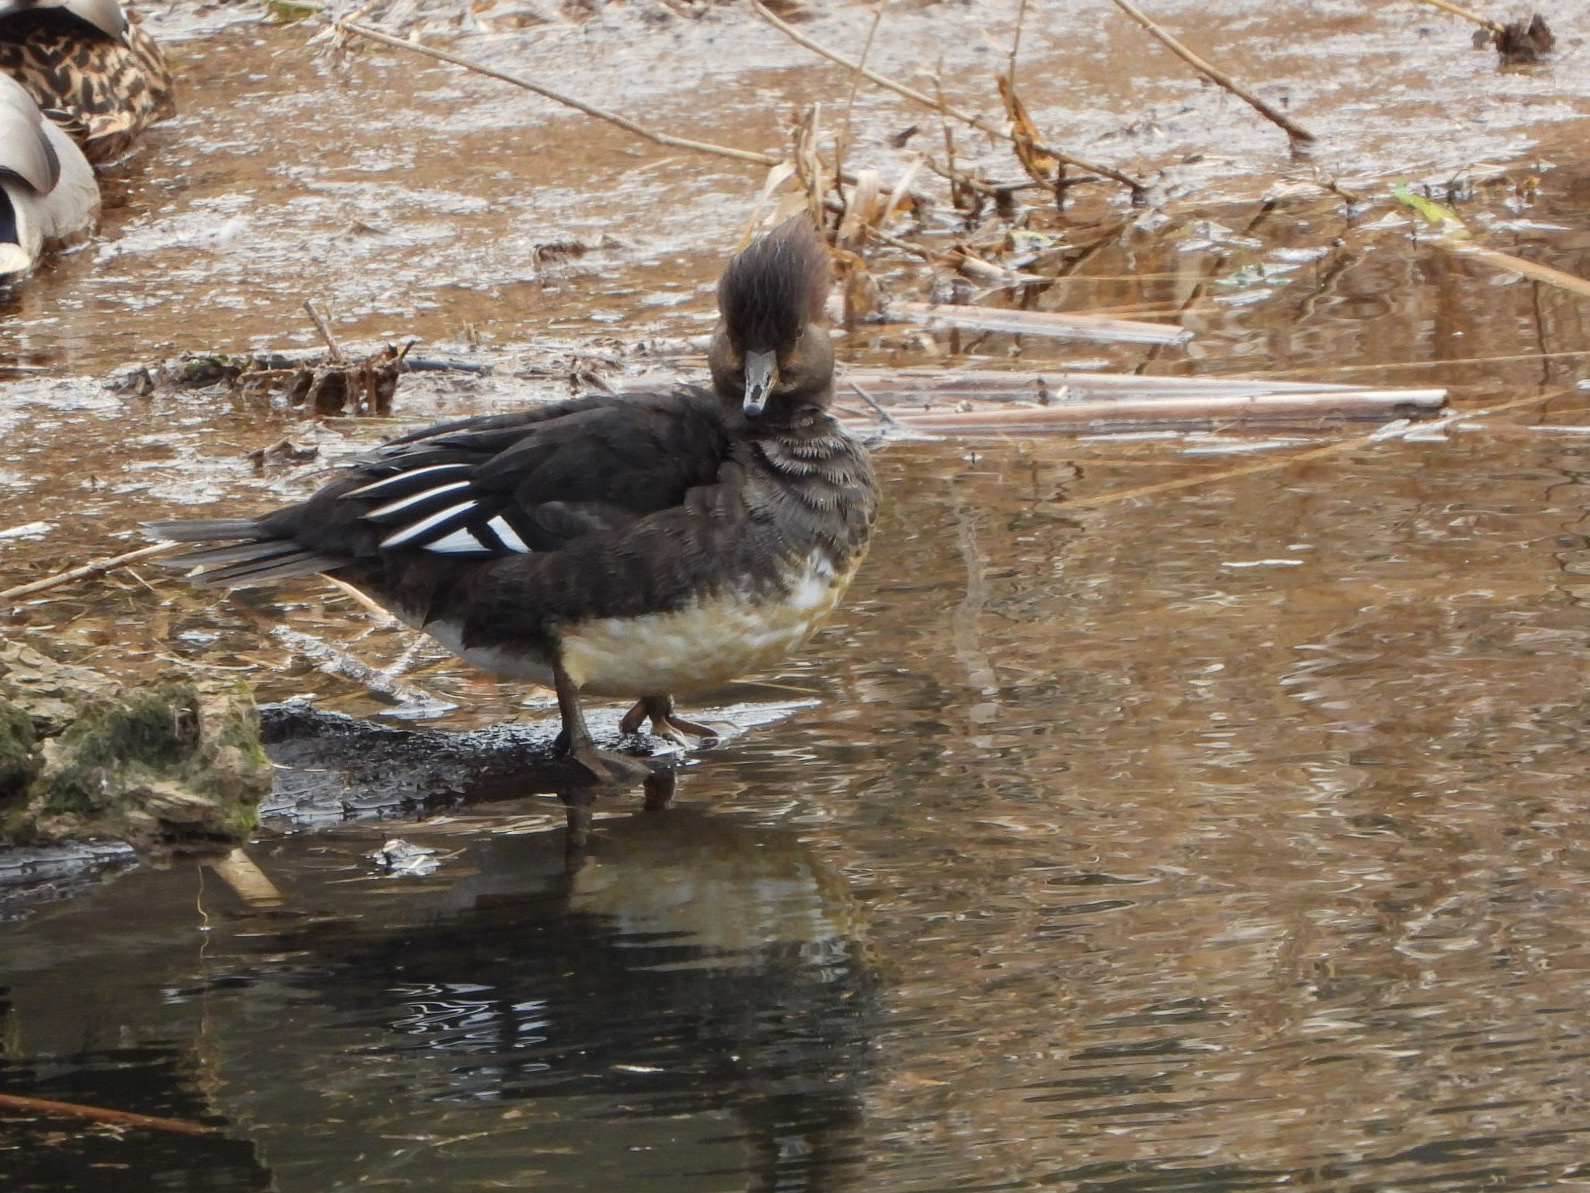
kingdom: Animalia
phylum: Chordata
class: Aves
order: Anseriformes
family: Anatidae
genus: Lophodytes
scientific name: Lophodytes cucullatus
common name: Hooded merganser
